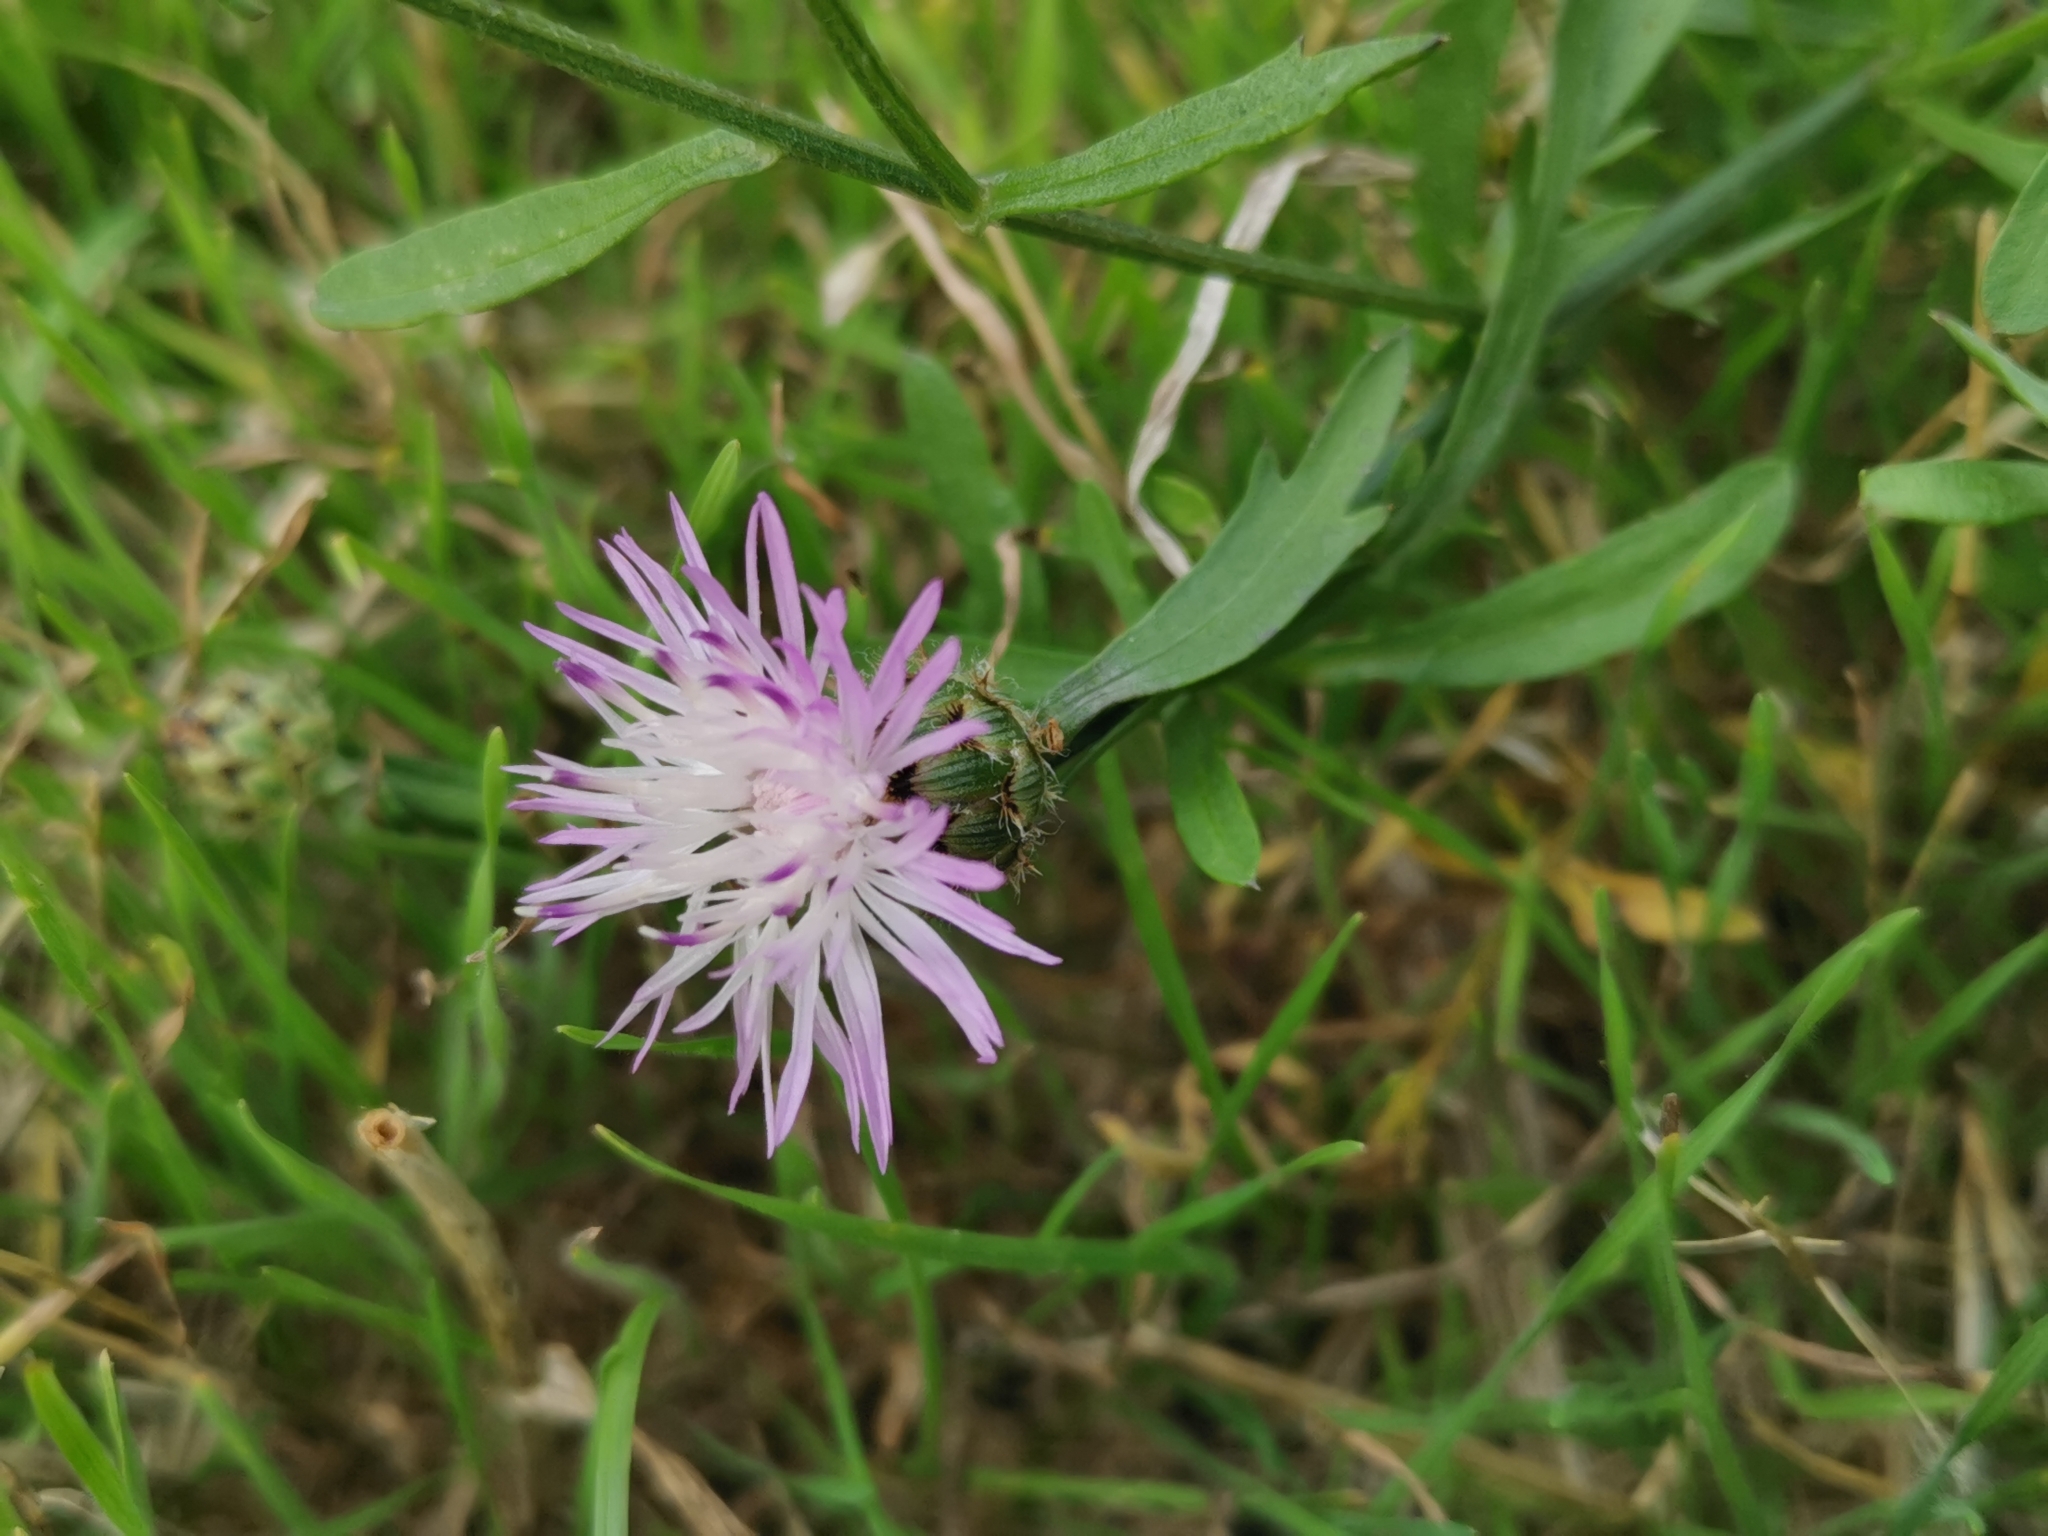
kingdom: Plantae
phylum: Tracheophyta
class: Magnoliopsida
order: Asterales
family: Asteraceae
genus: Centaurea
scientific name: Centaurea scabiosa
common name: Greater knapweed
